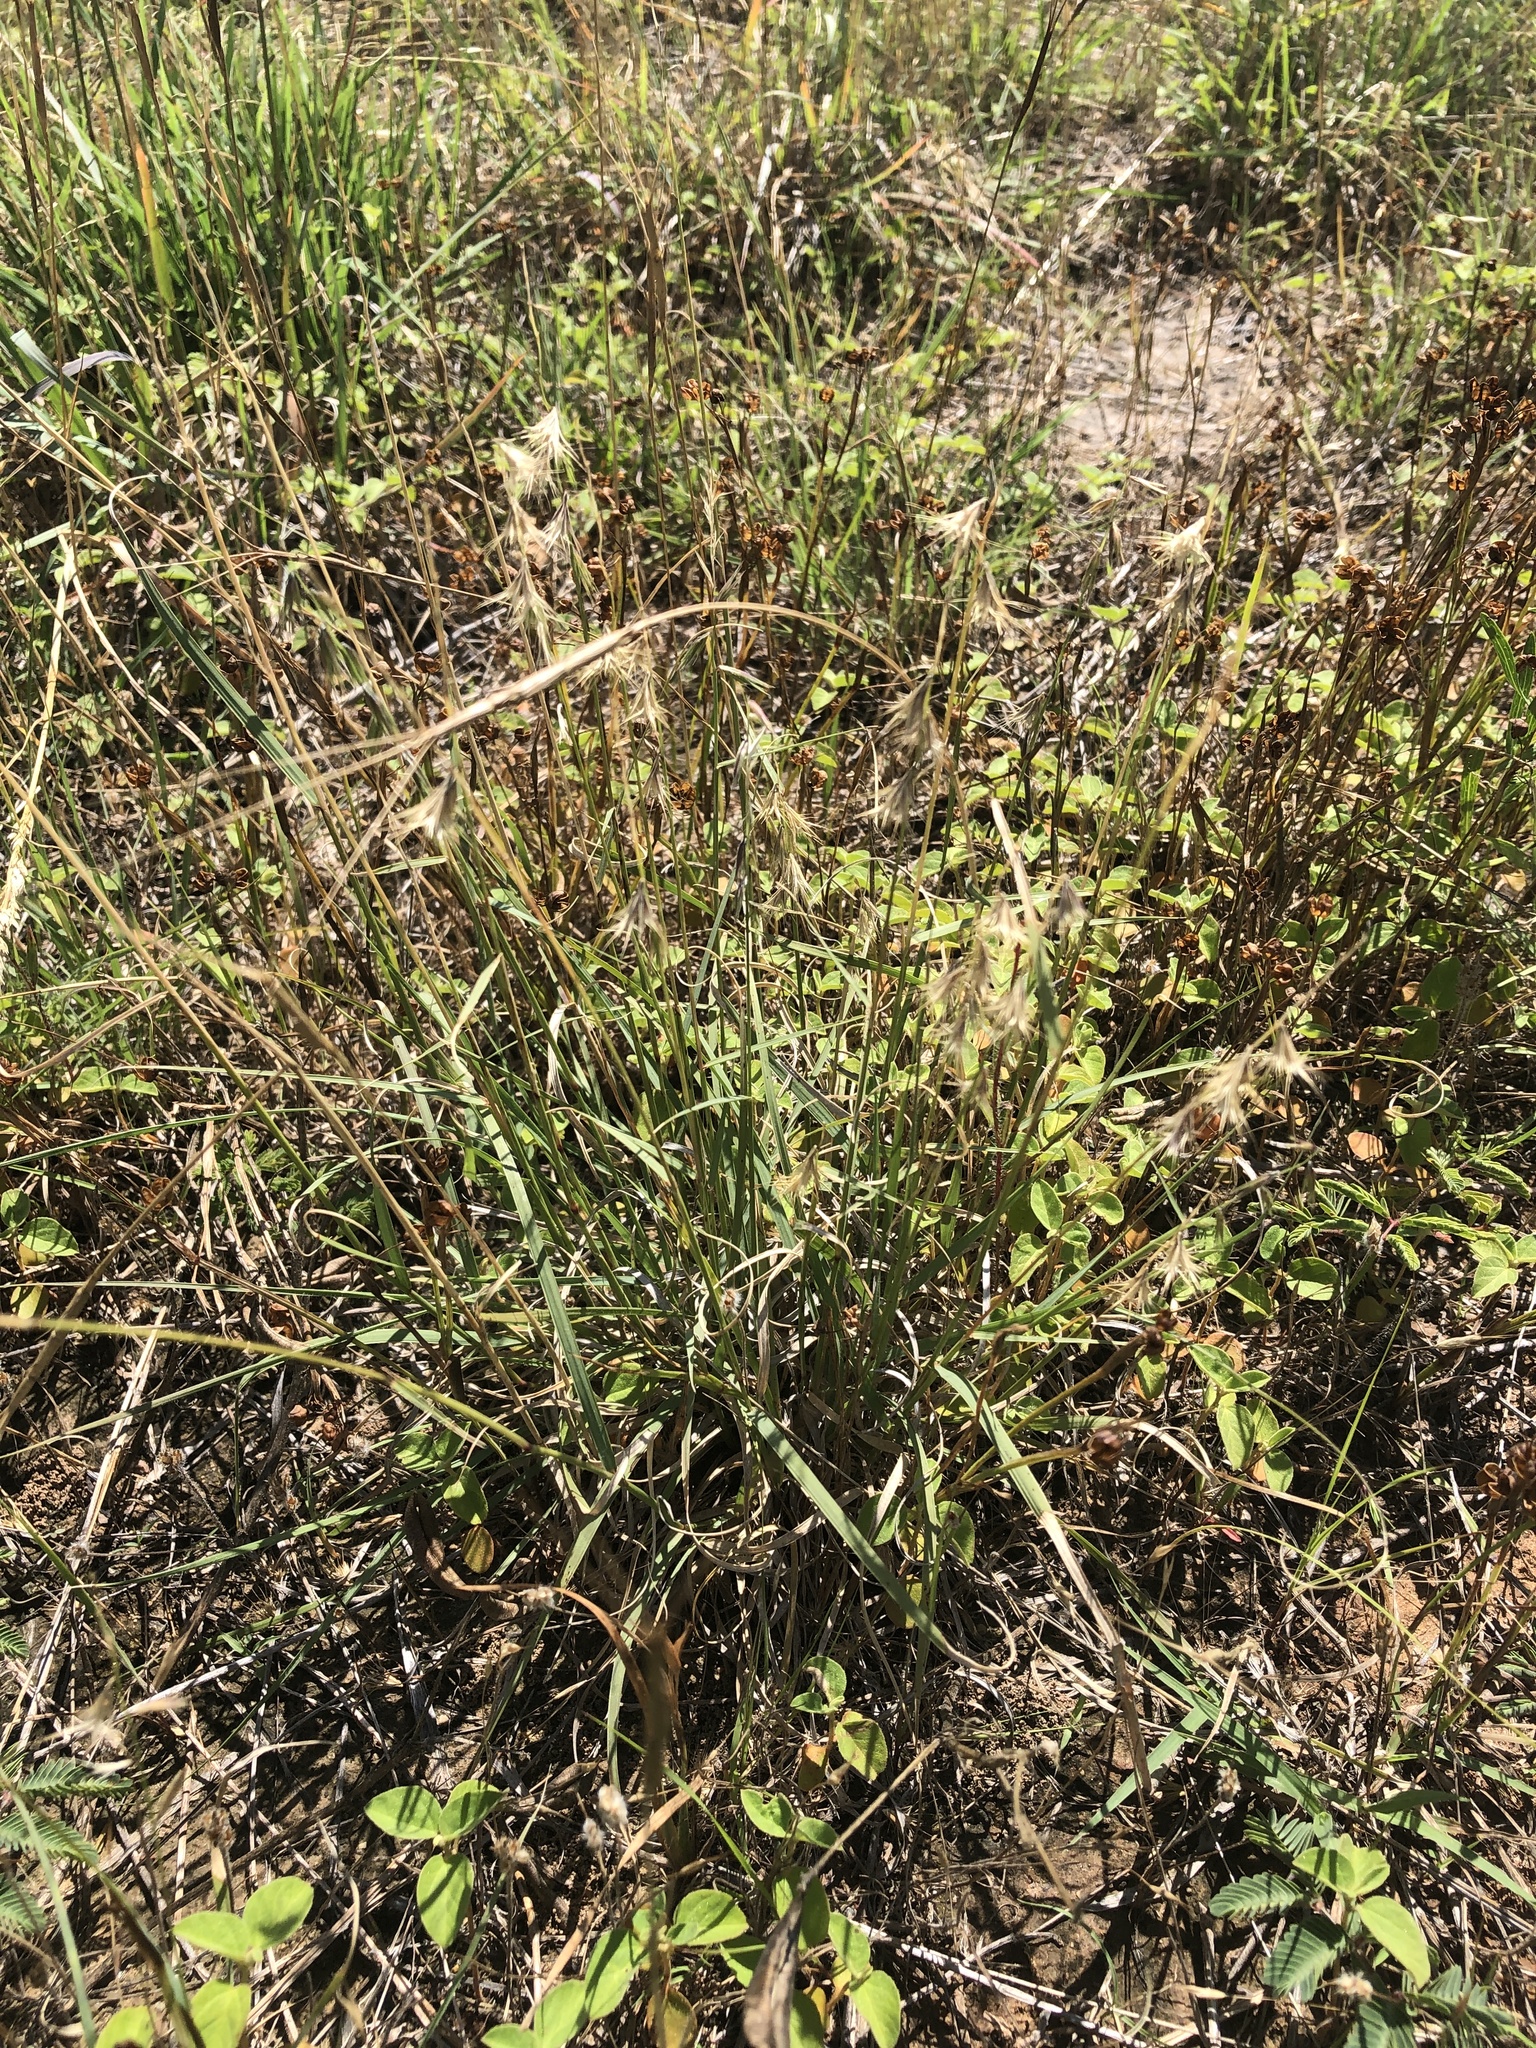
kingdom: Plantae
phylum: Tracheophyta
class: Liliopsida
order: Poales
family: Poaceae
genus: Bouteloua
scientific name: Bouteloua rigidiseta
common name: Texas grama
